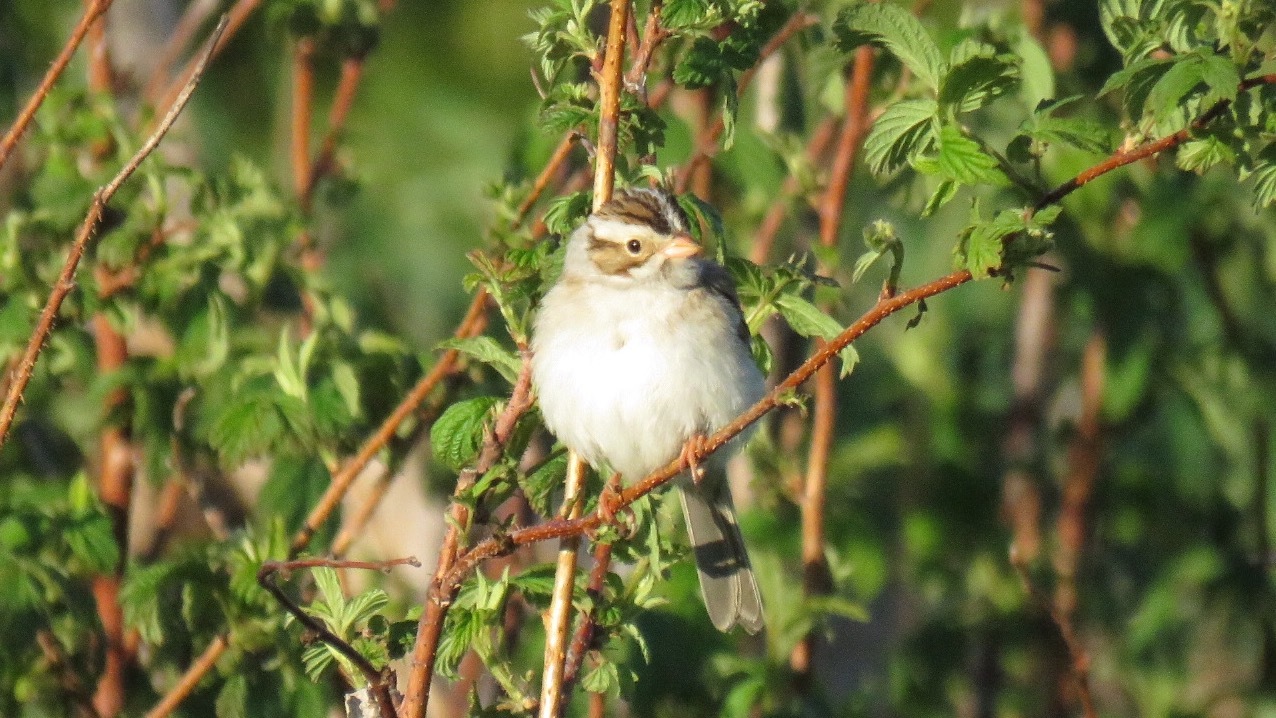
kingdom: Animalia
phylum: Chordata
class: Aves
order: Passeriformes
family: Passerellidae
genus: Spizella
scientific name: Spizella pallida
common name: Clay-colored sparrow
